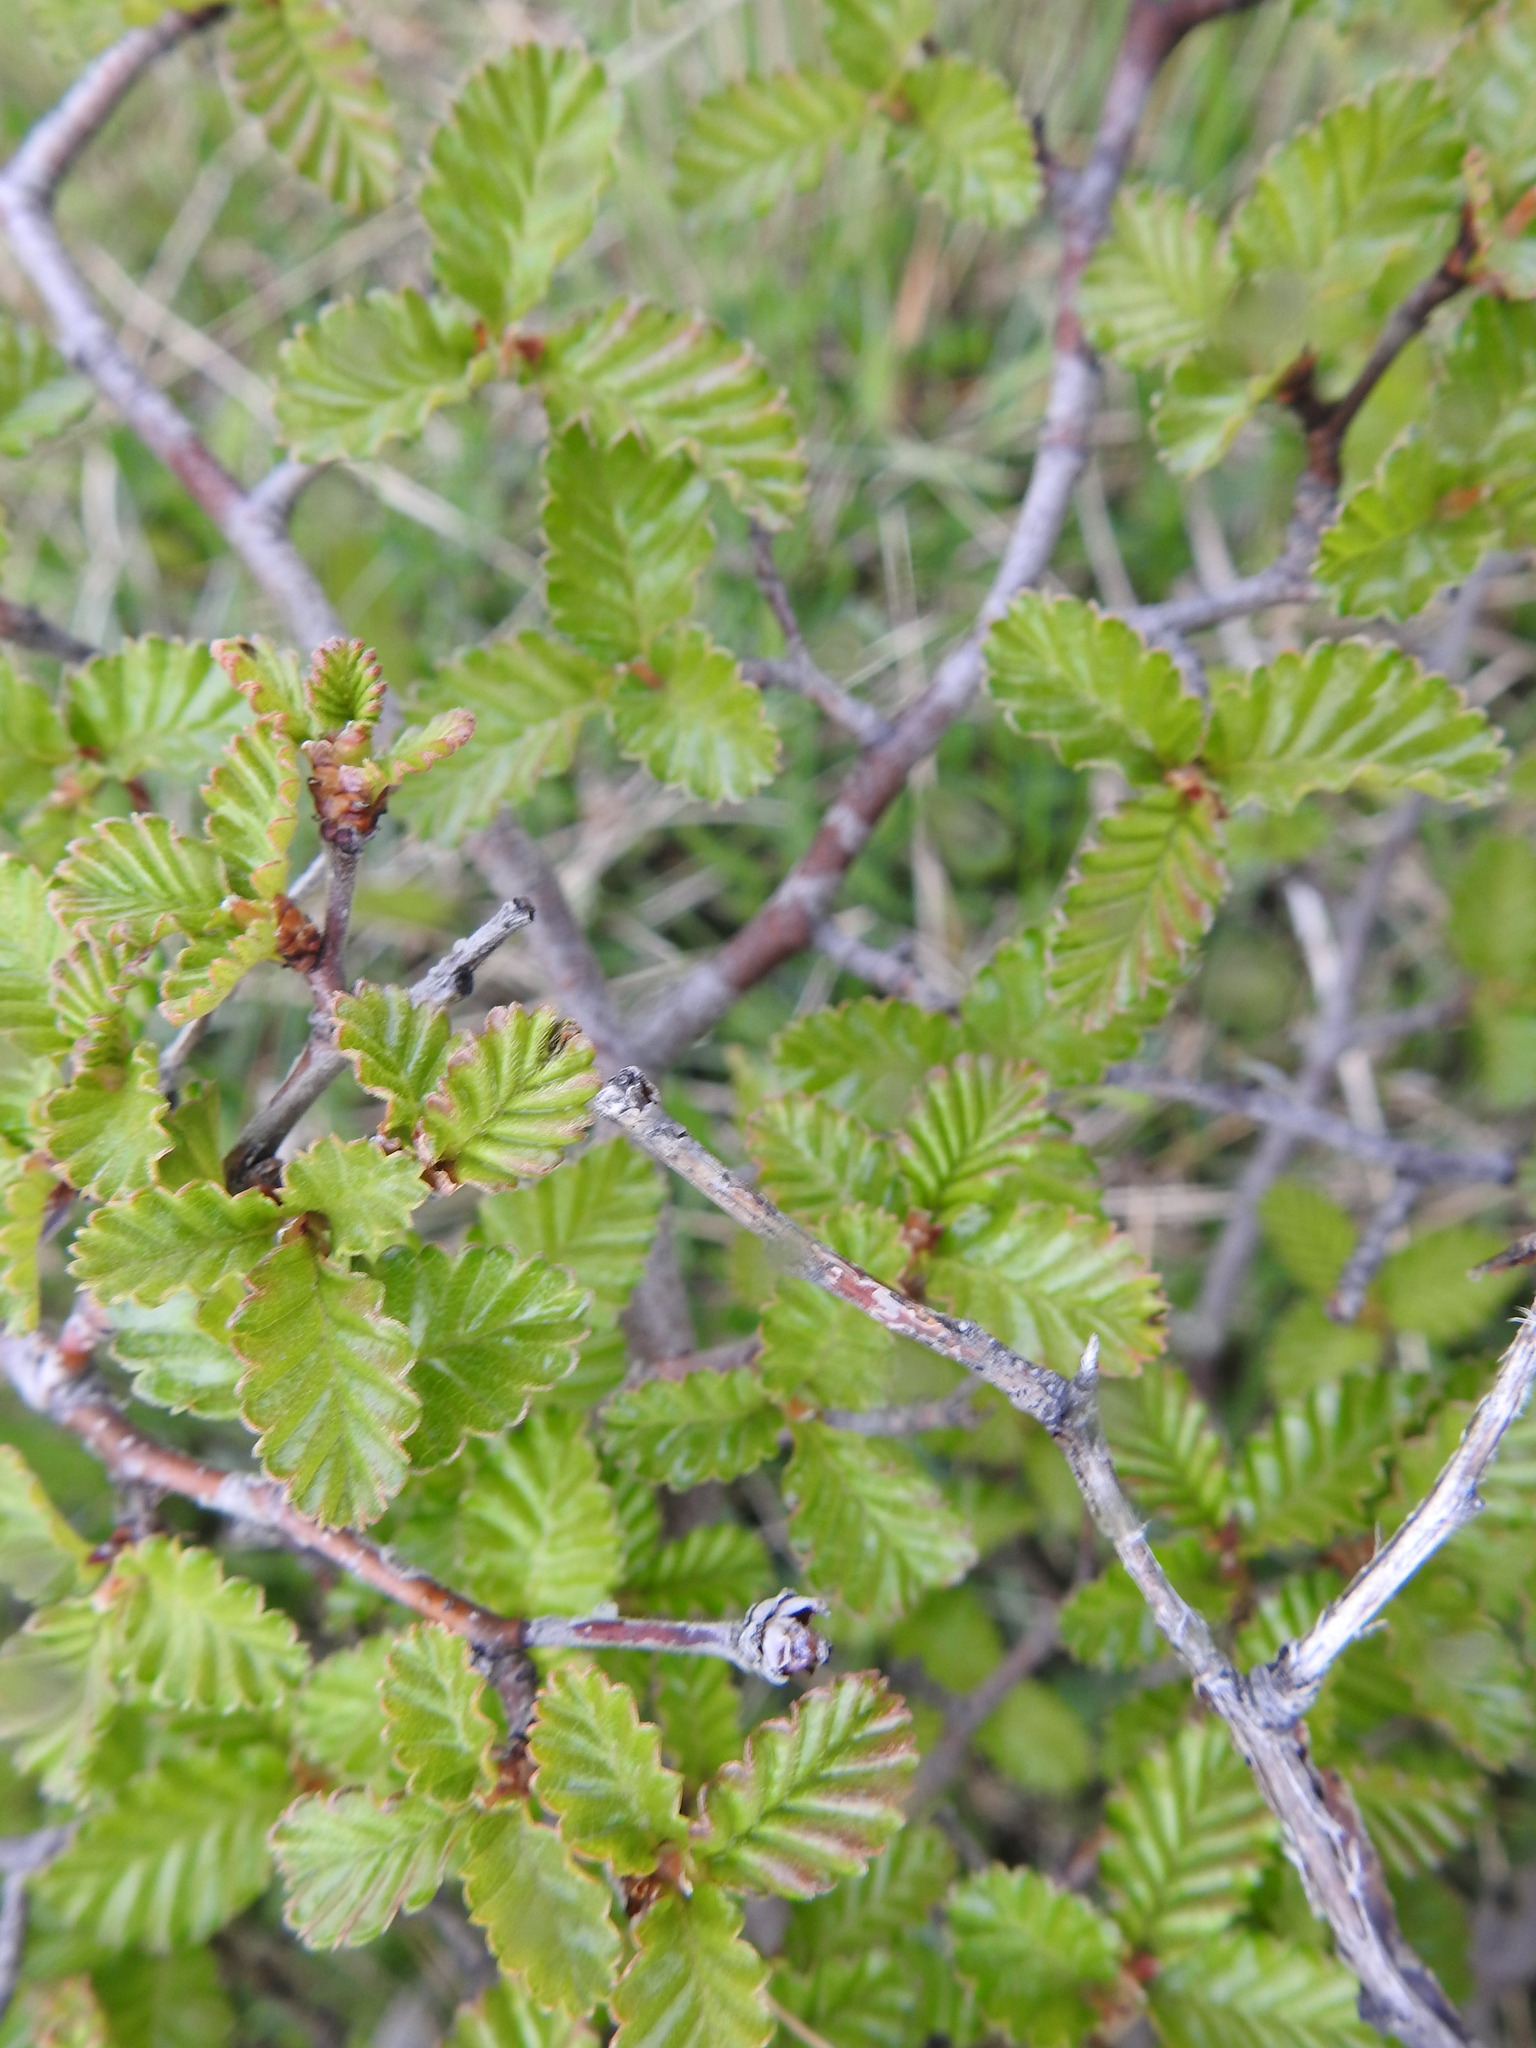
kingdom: Plantae
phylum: Tracheophyta
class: Magnoliopsida
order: Fagales
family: Nothofagaceae
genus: Nothofagus
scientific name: Nothofagus pumilio
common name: Lenga beech
